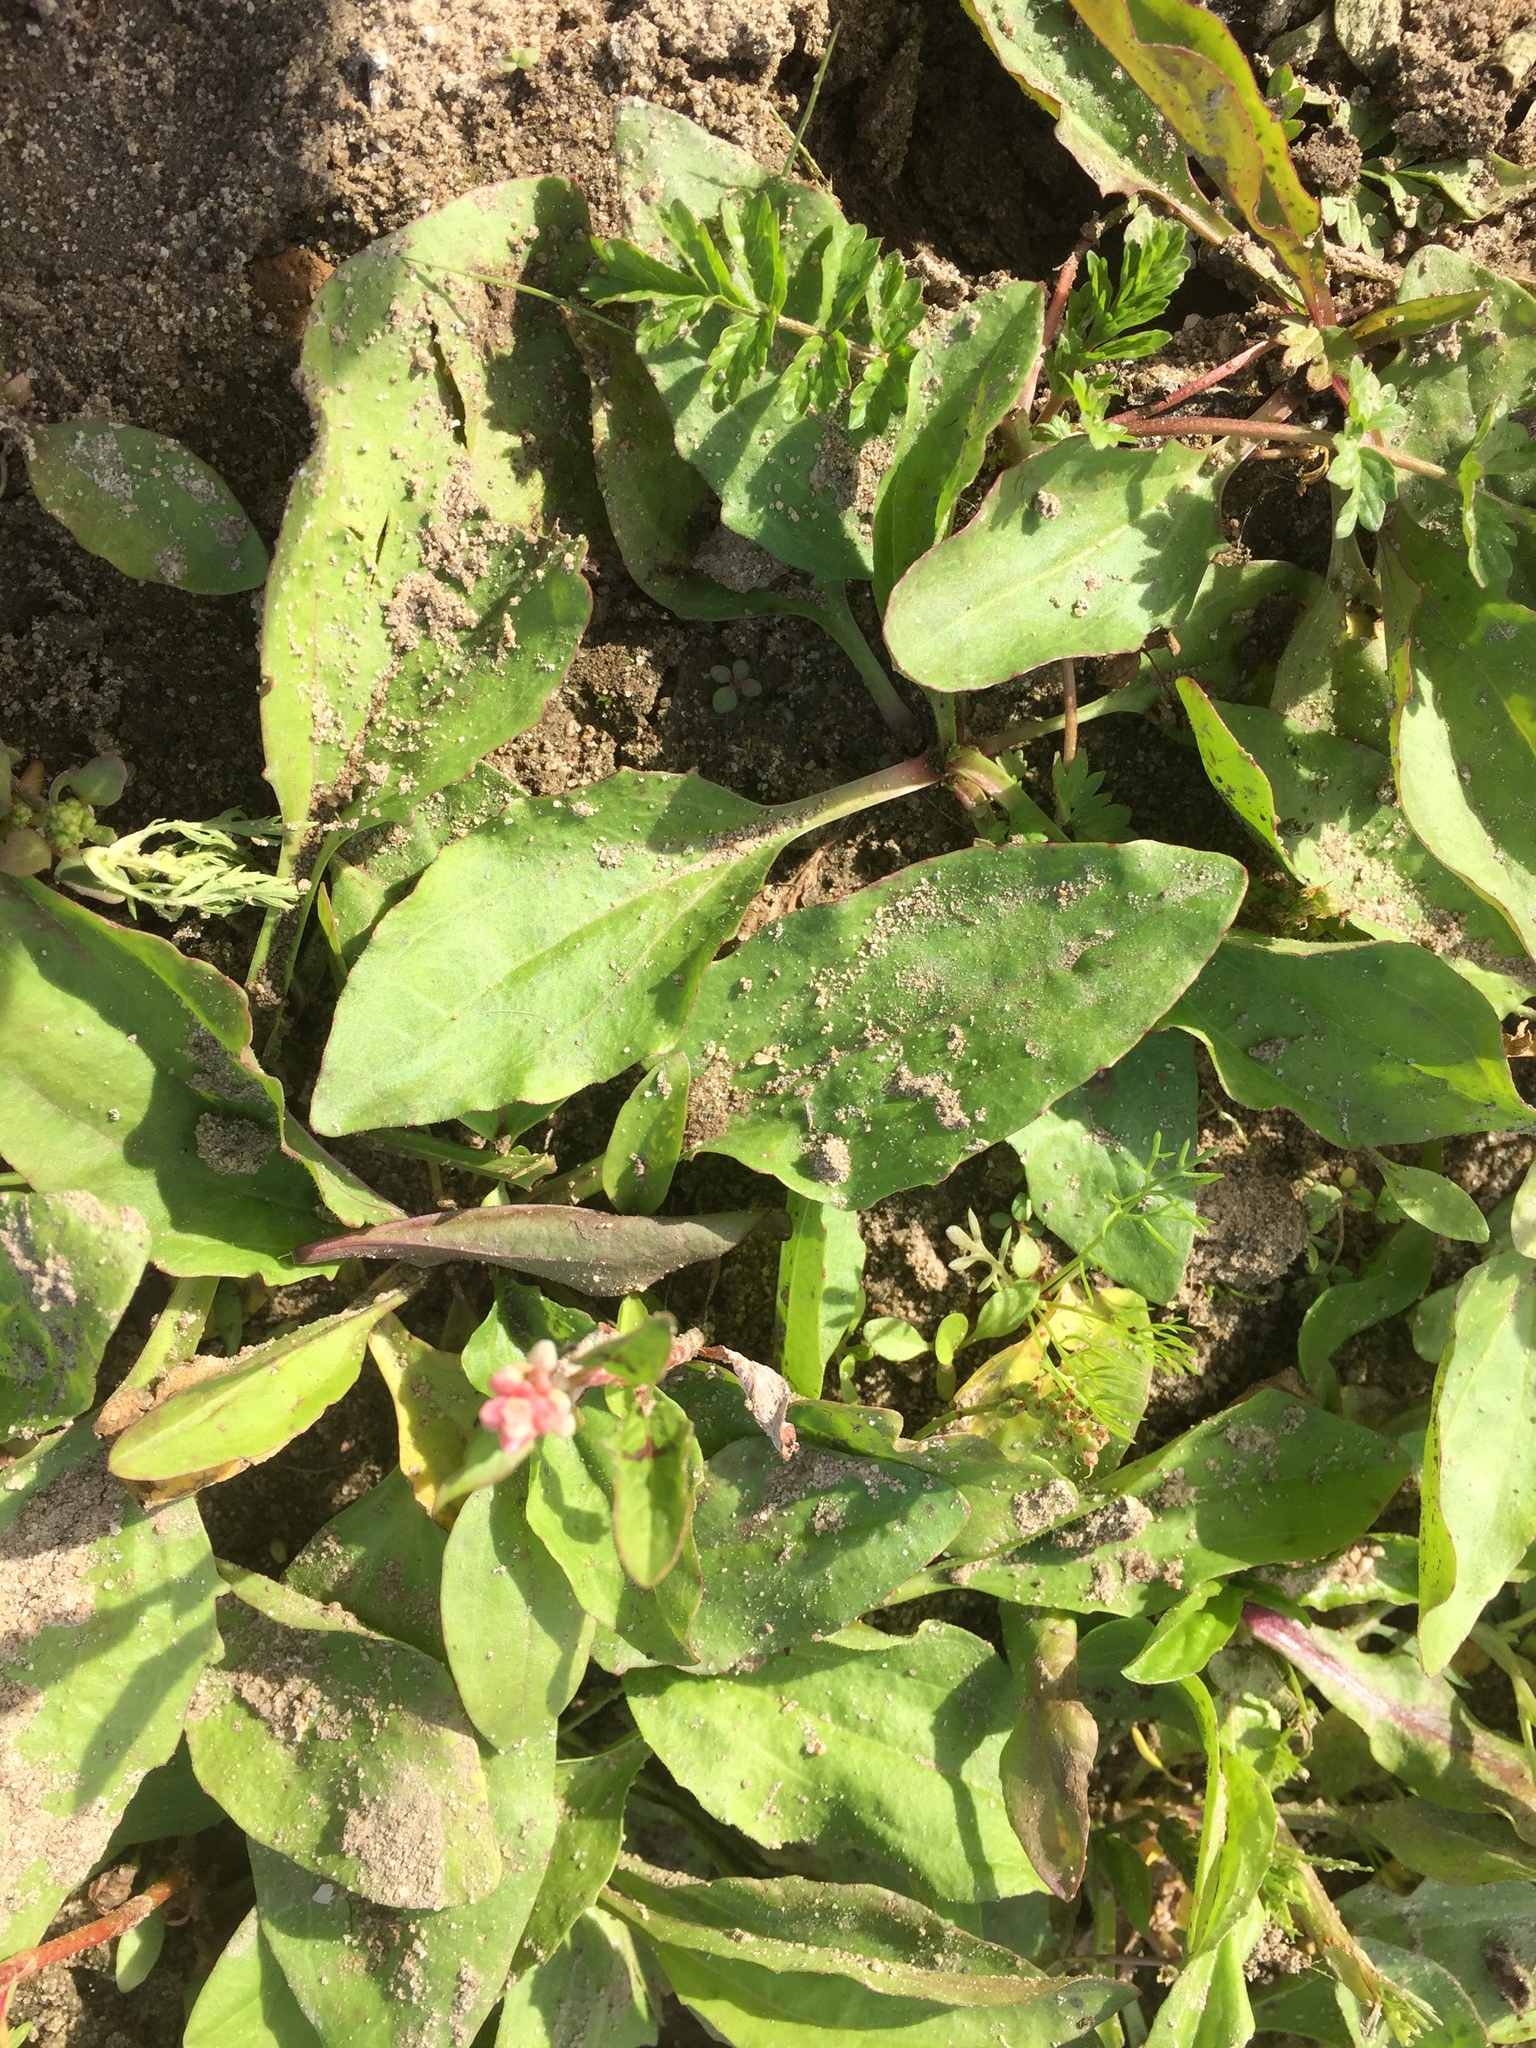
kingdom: Plantae
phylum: Tracheophyta
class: Magnoliopsida
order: Lamiales
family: Plantaginaceae
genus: Plantago
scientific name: Plantago uliginosa
